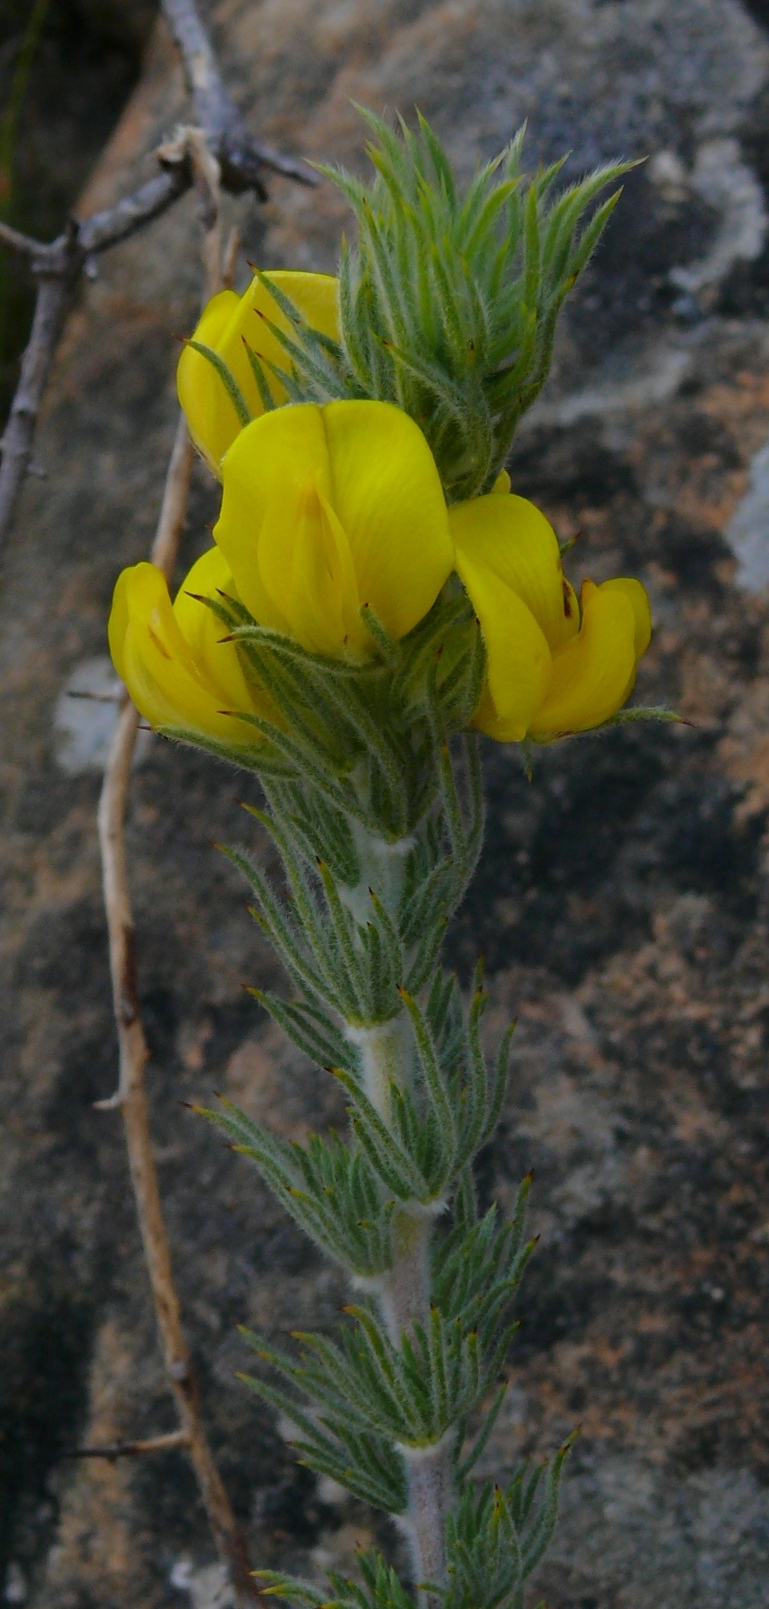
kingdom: Plantae
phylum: Tracheophyta
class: Magnoliopsida
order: Fabales
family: Fabaceae
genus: Aspalathus
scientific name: Aspalathus shawii
